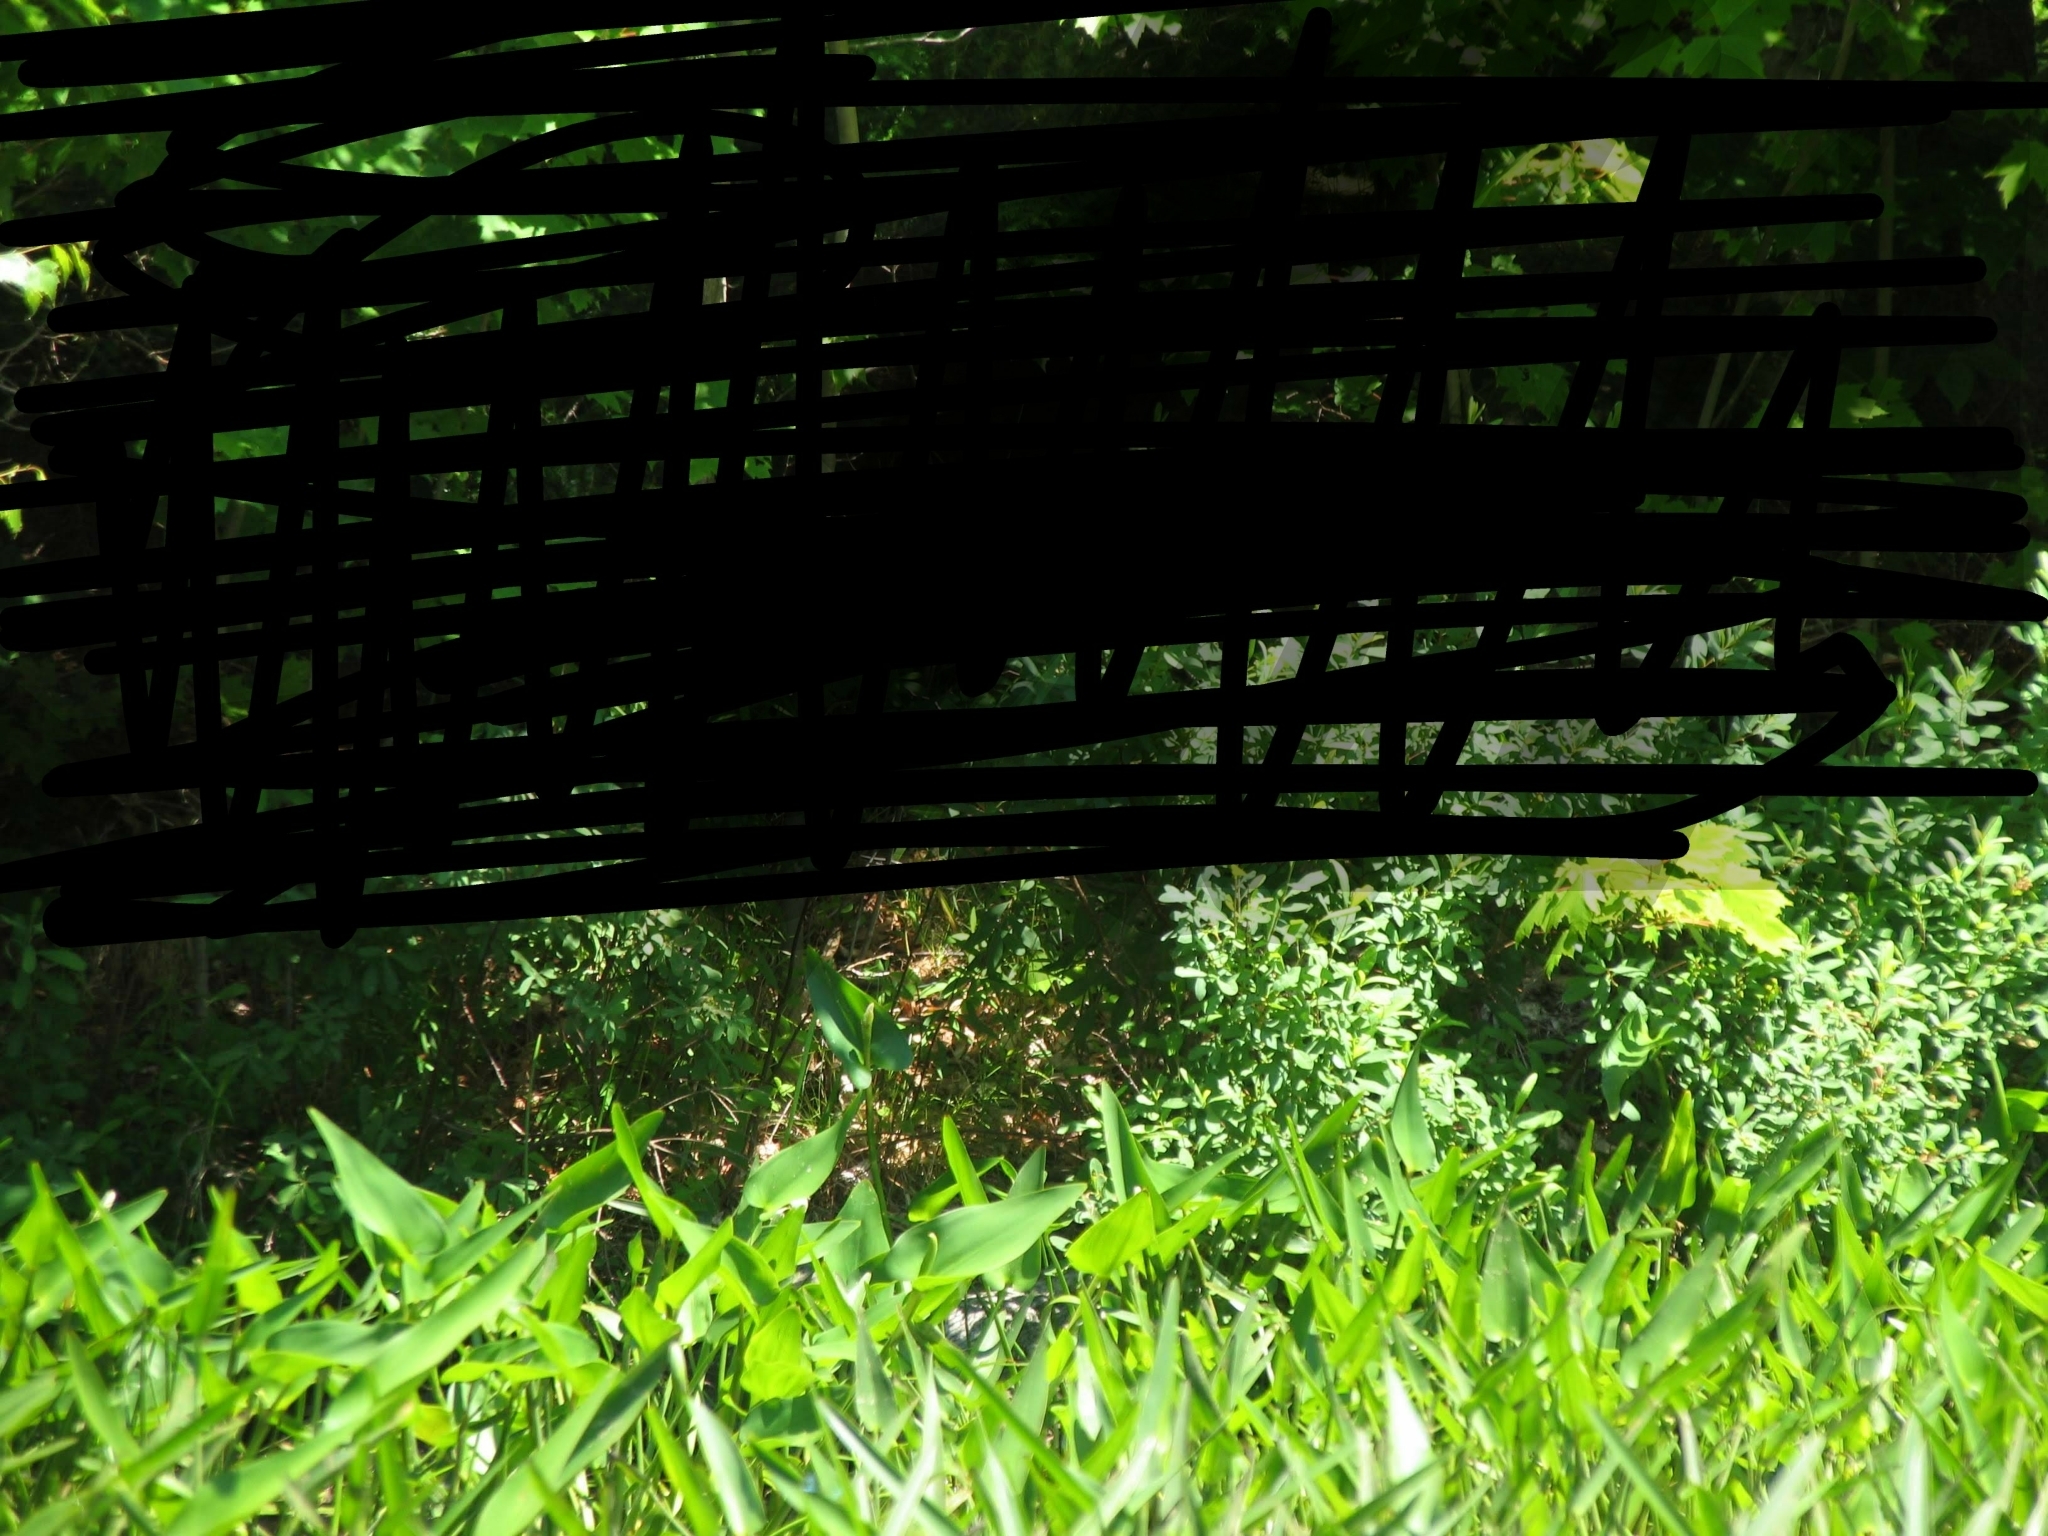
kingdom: Plantae
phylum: Tracheophyta
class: Liliopsida
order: Commelinales
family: Pontederiaceae
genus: Pontederia
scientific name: Pontederia cordata
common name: Pickerelweed
